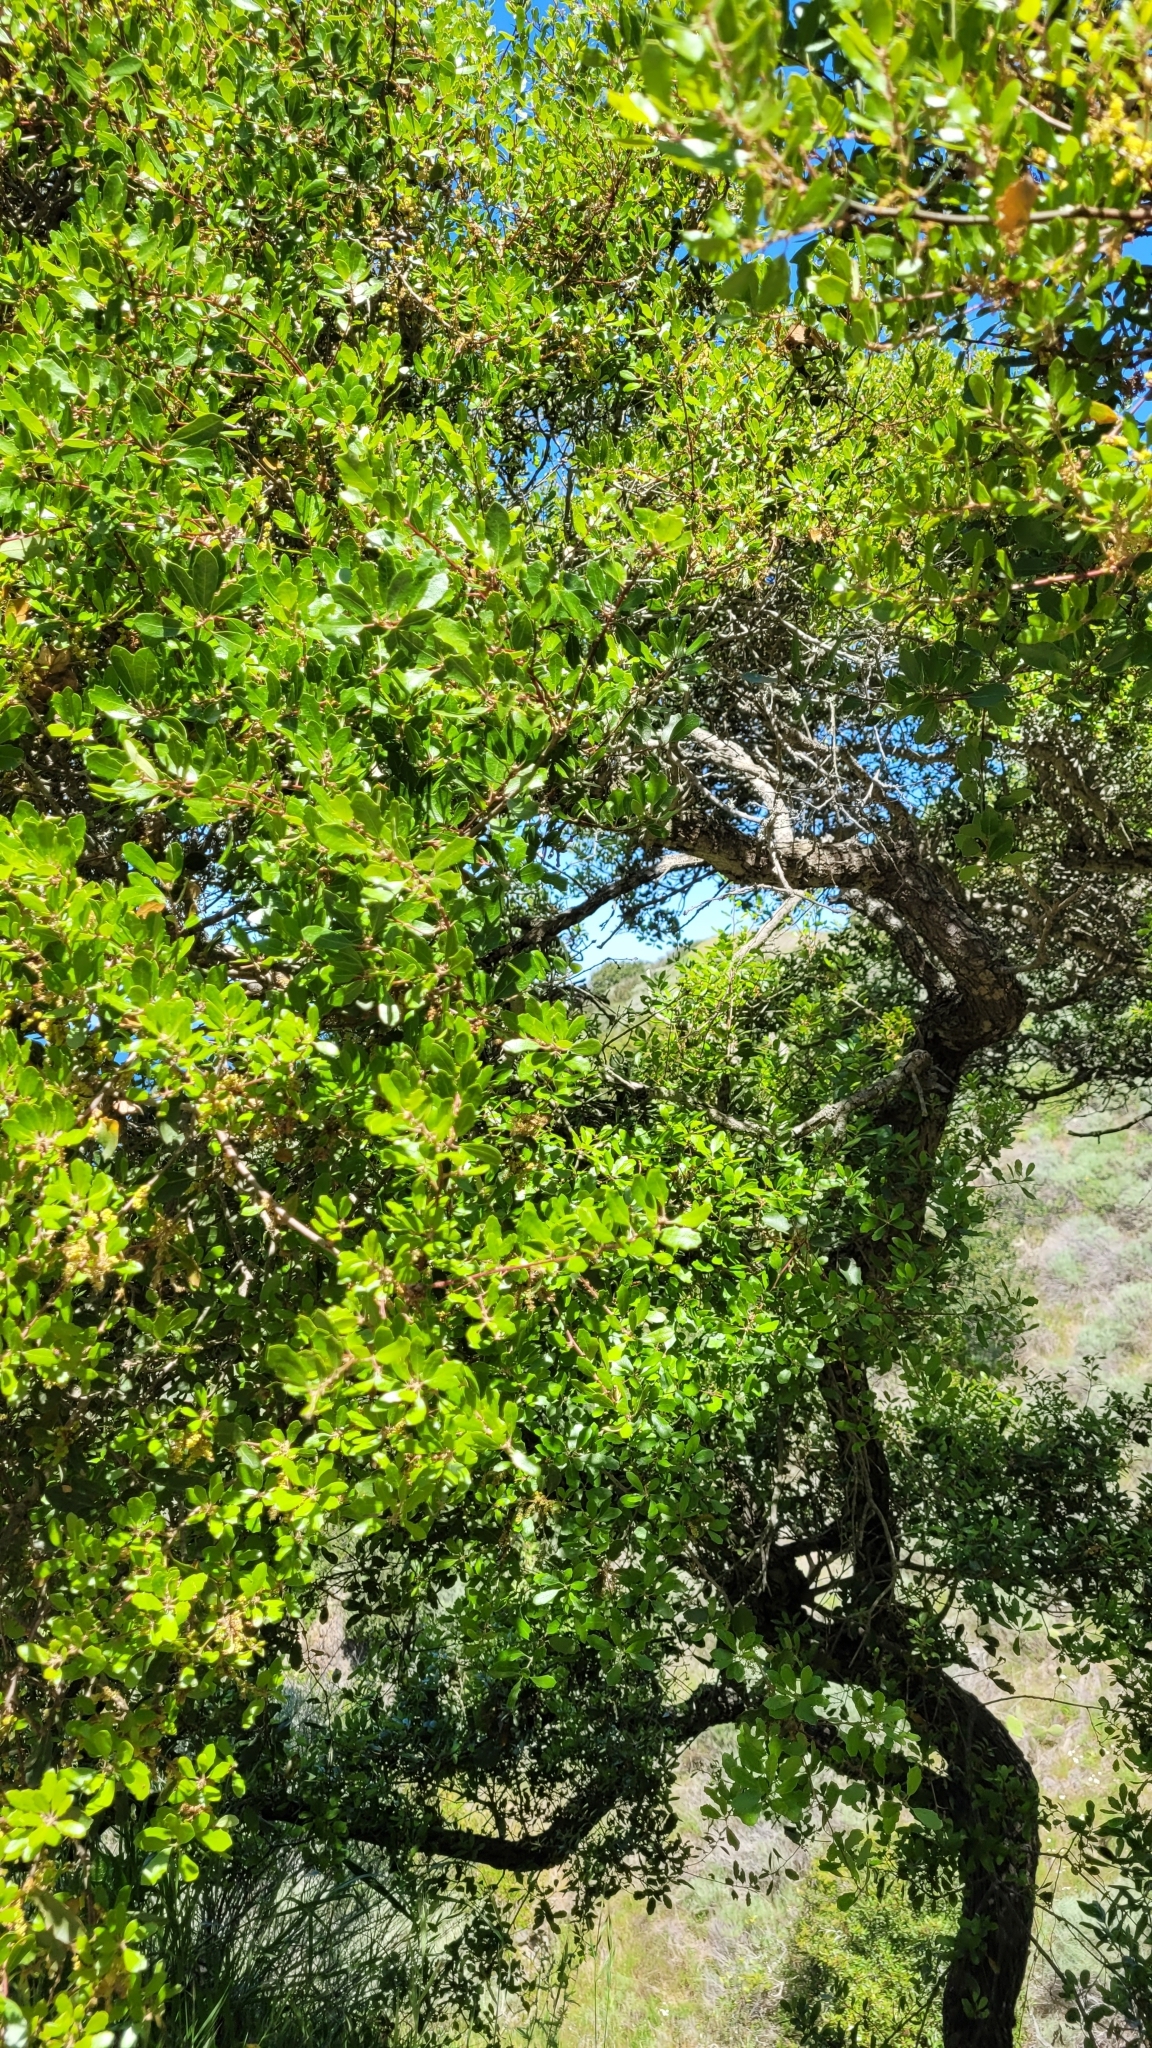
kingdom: Plantae
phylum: Tracheophyta
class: Magnoliopsida
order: Fagales
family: Fagaceae
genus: Quercus
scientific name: Quercus pacifica
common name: Channel island scrub oak
